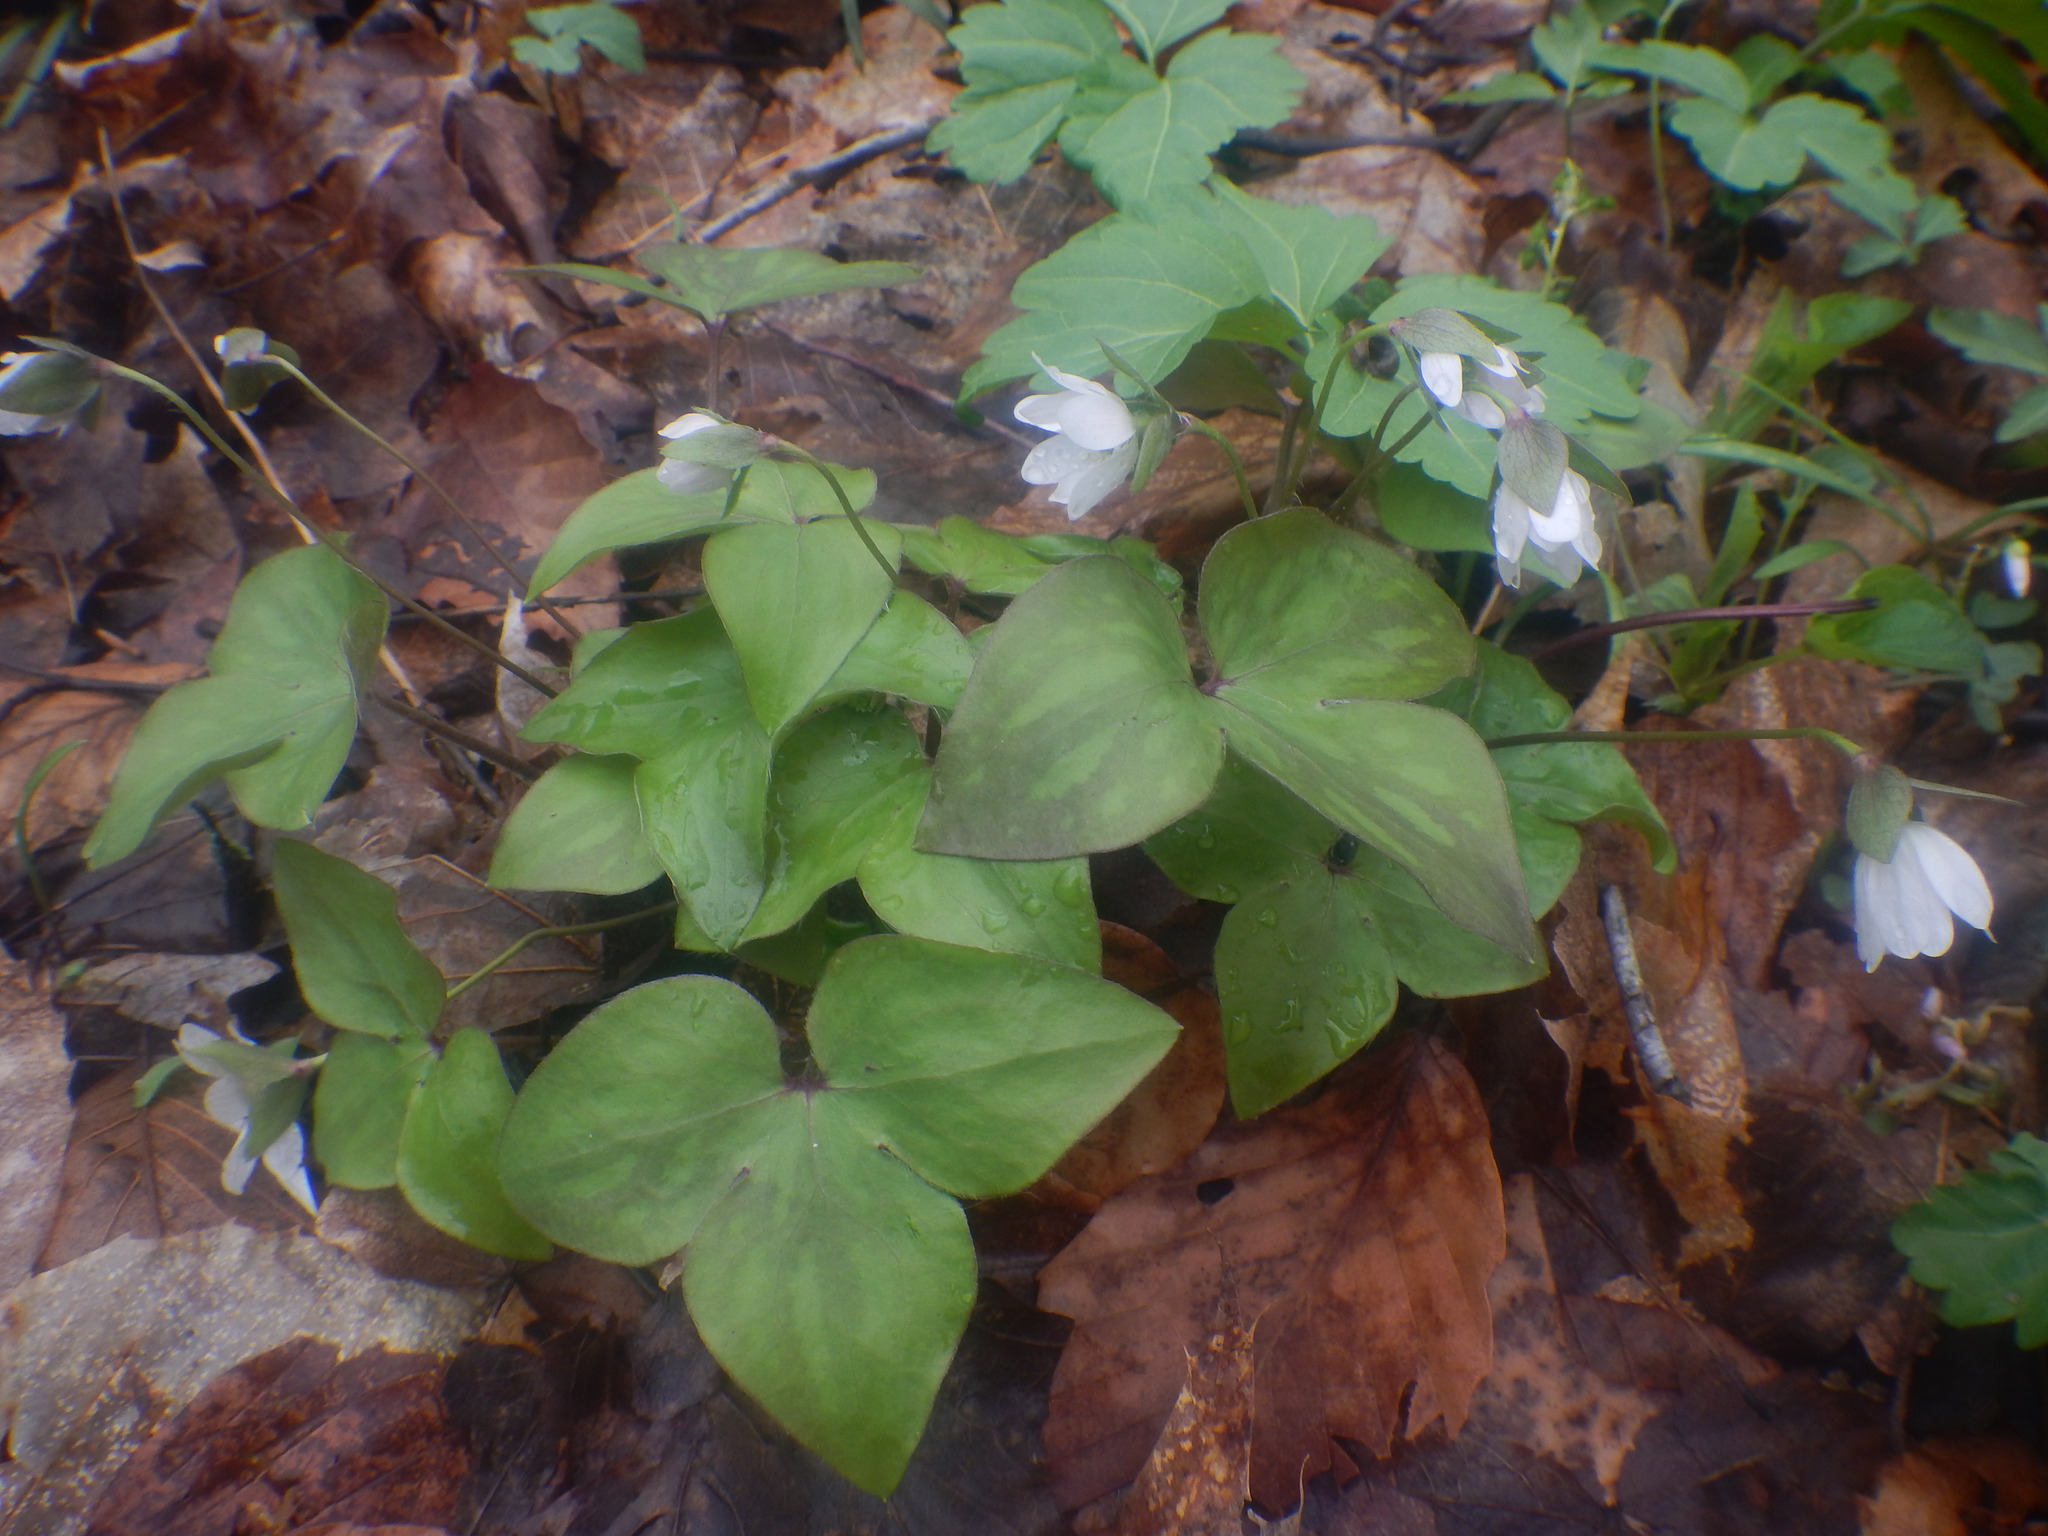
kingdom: Plantae
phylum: Tracheophyta
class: Magnoliopsida
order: Ranunculales
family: Ranunculaceae
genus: Hepatica
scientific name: Hepatica acutiloba
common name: Sharp-lobed hepatica
